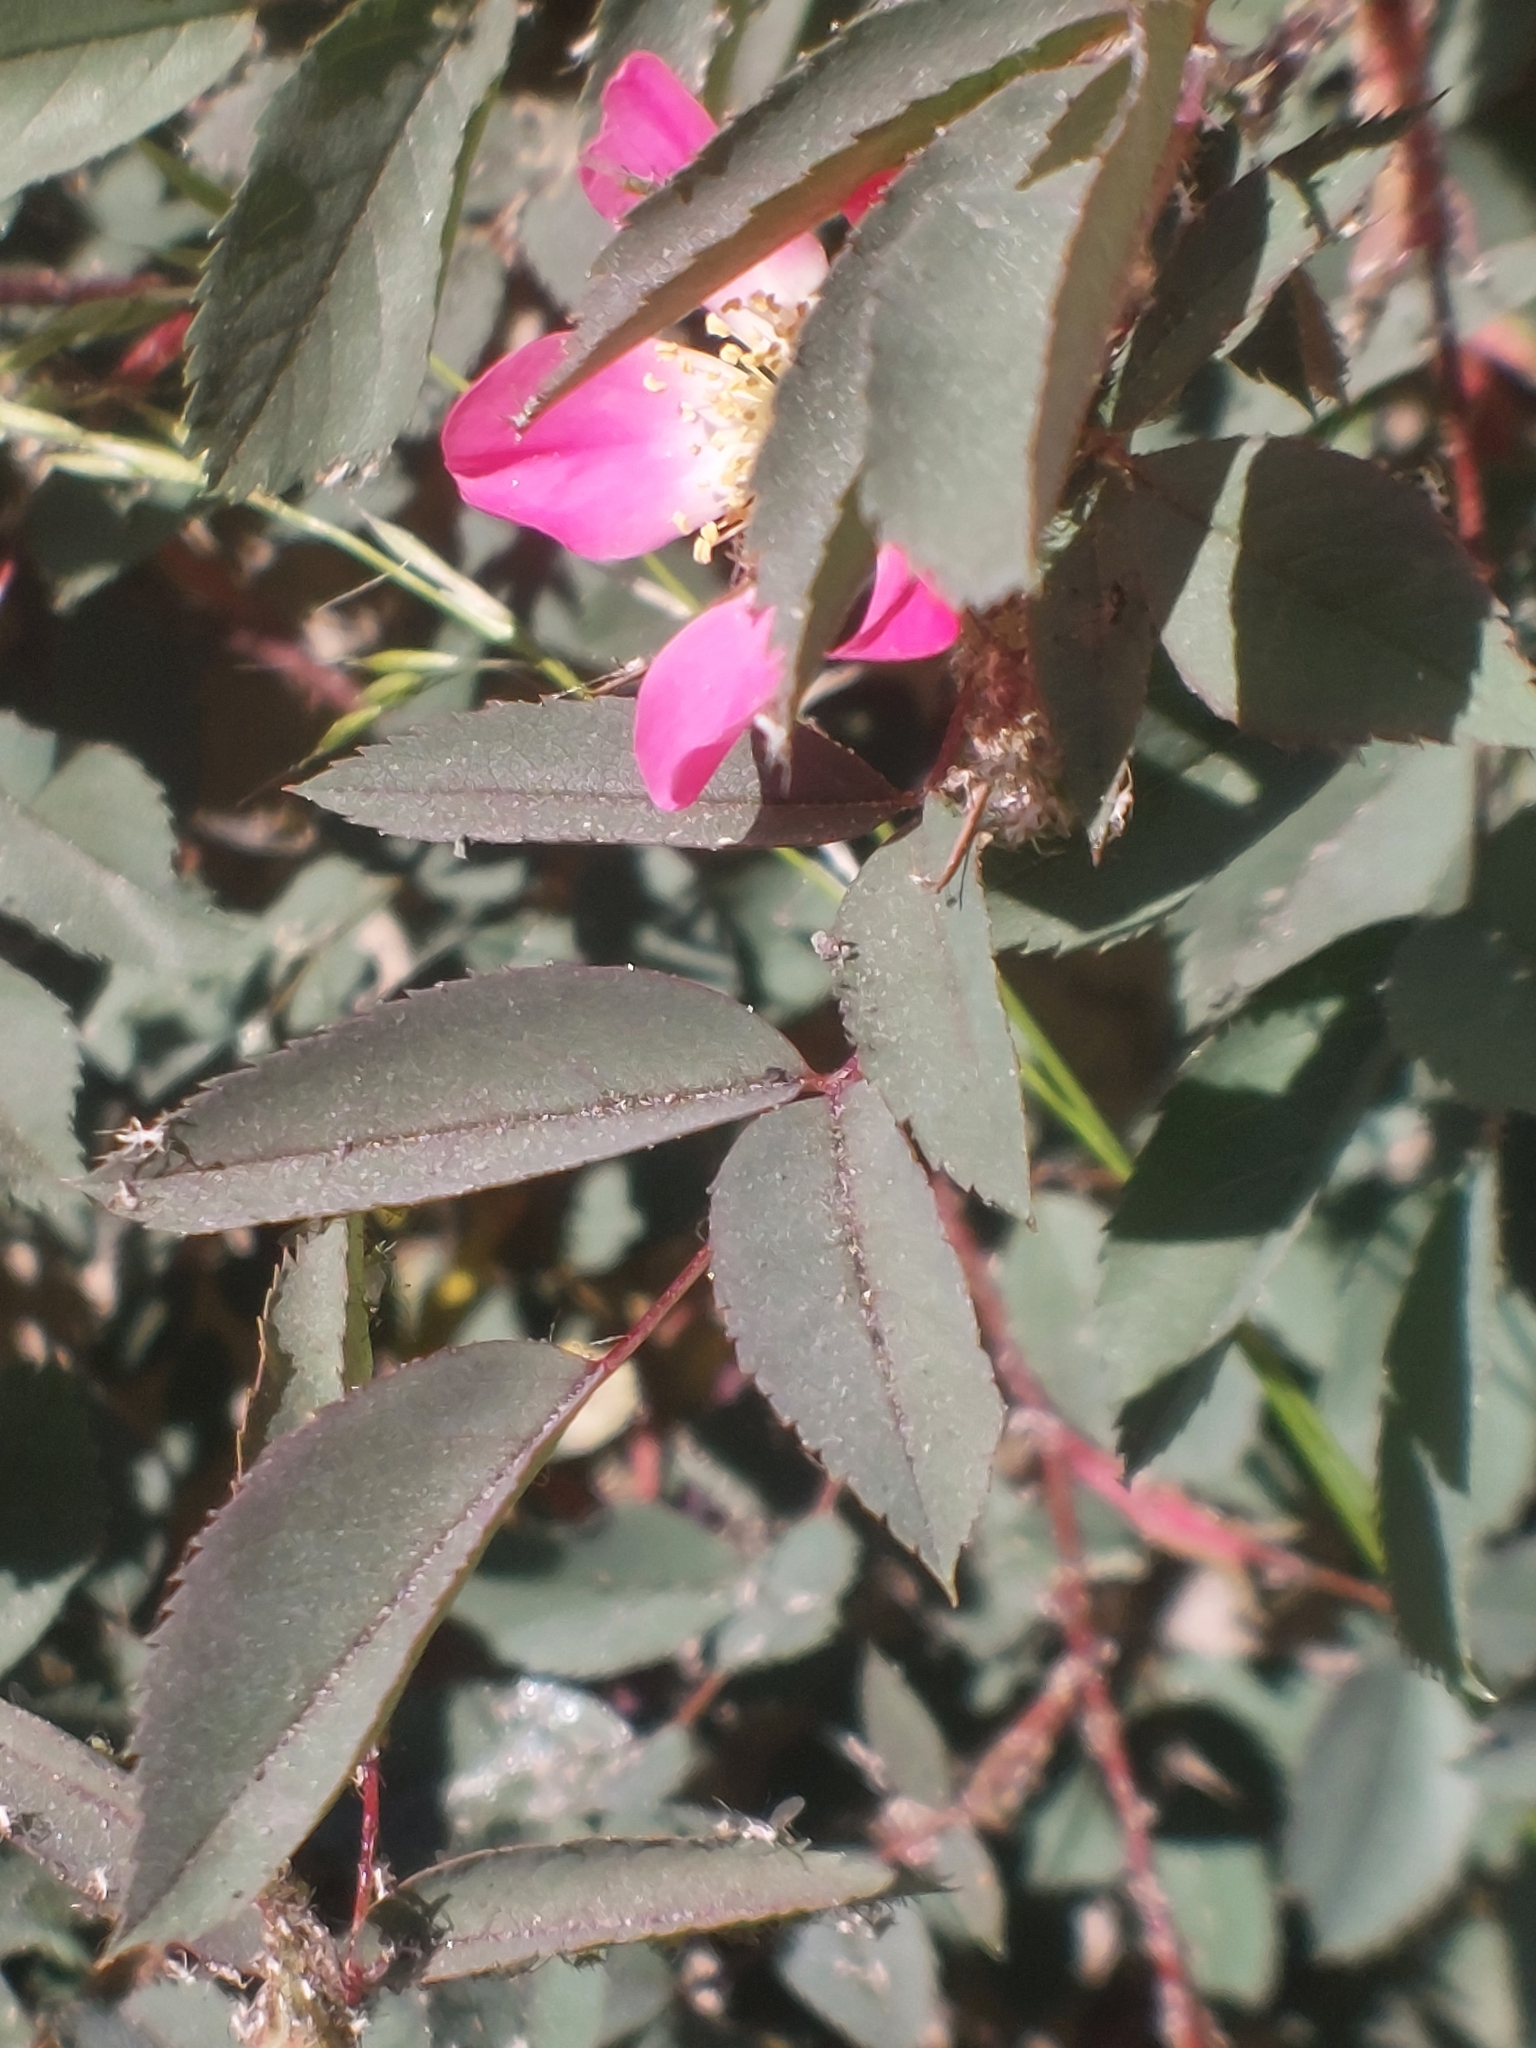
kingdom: Plantae
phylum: Tracheophyta
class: Magnoliopsida
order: Rosales
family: Rosaceae
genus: Rosa
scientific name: Rosa glauca
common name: Redleaf rose
